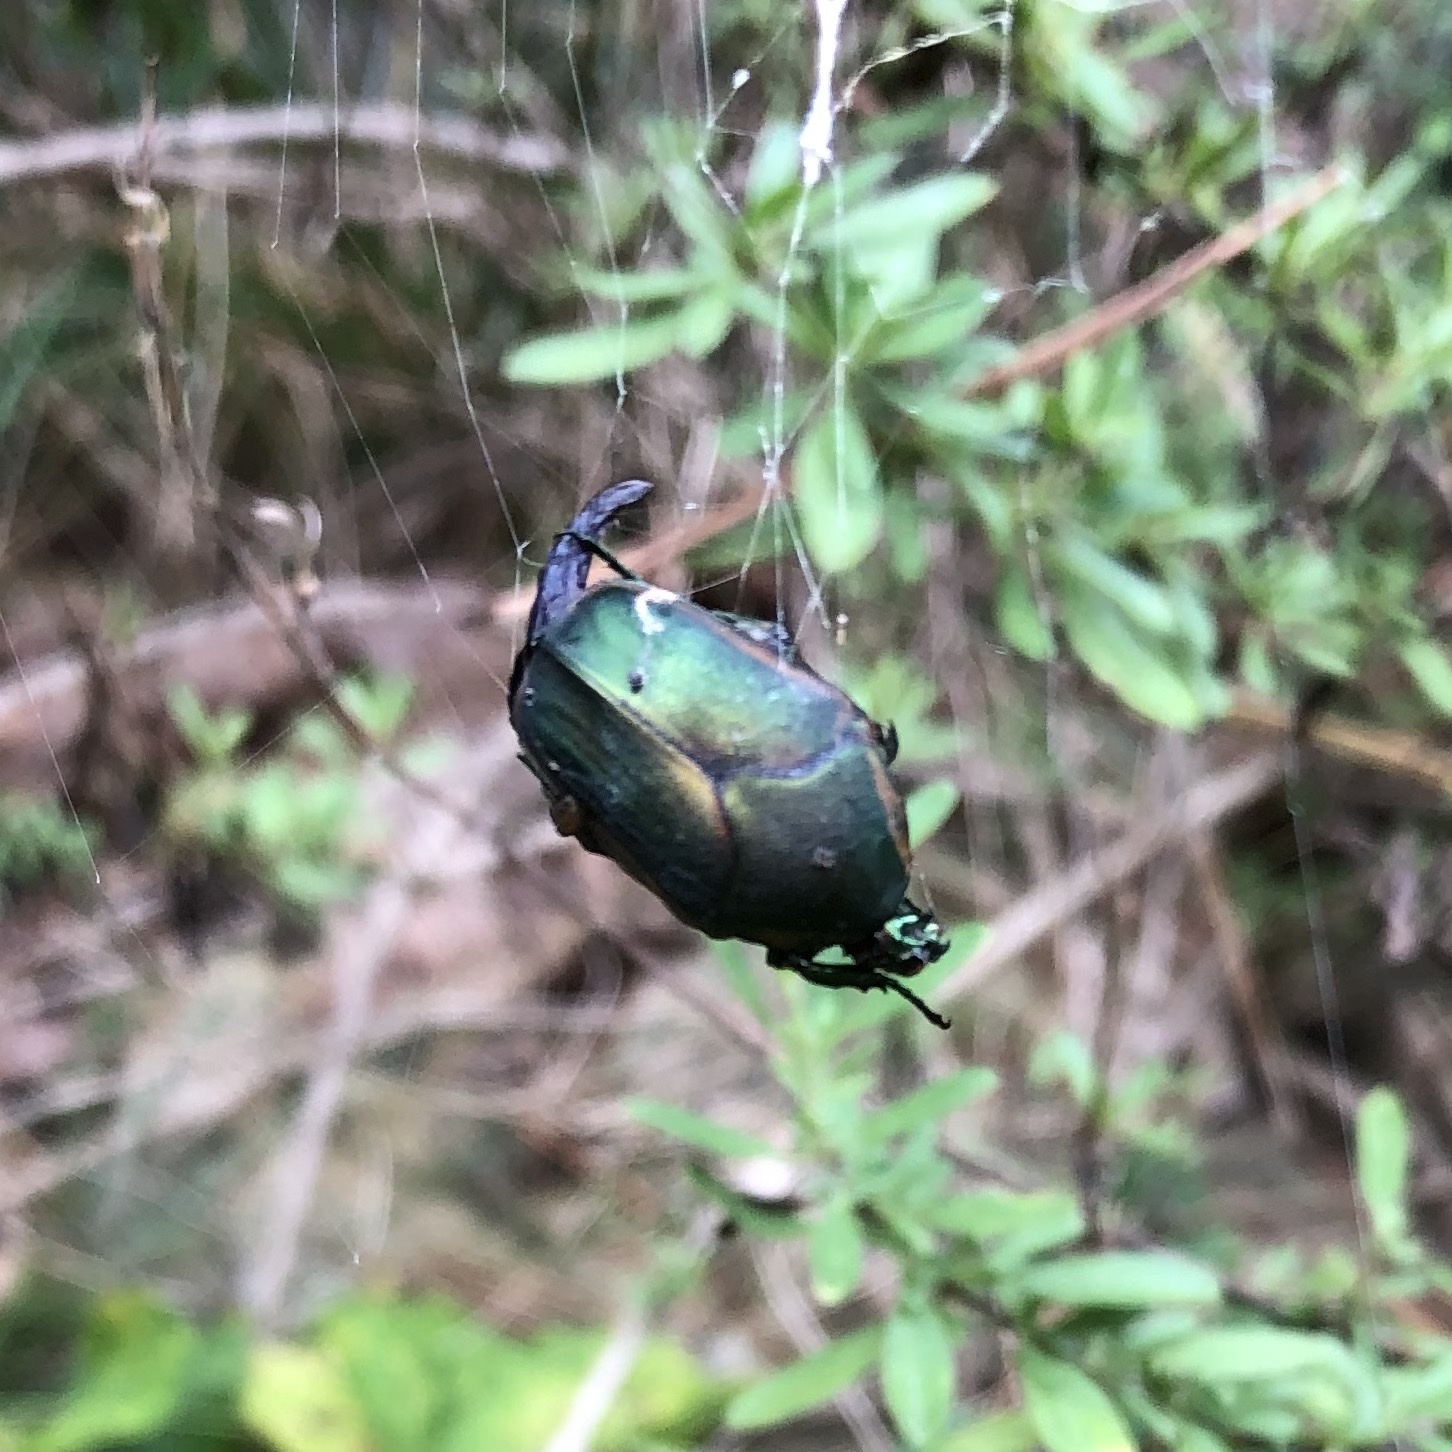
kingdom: Animalia
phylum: Arthropoda
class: Insecta
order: Coleoptera
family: Scarabaeidae
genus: Cotinis
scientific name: Cotinis nitida
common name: Common green june beetle
